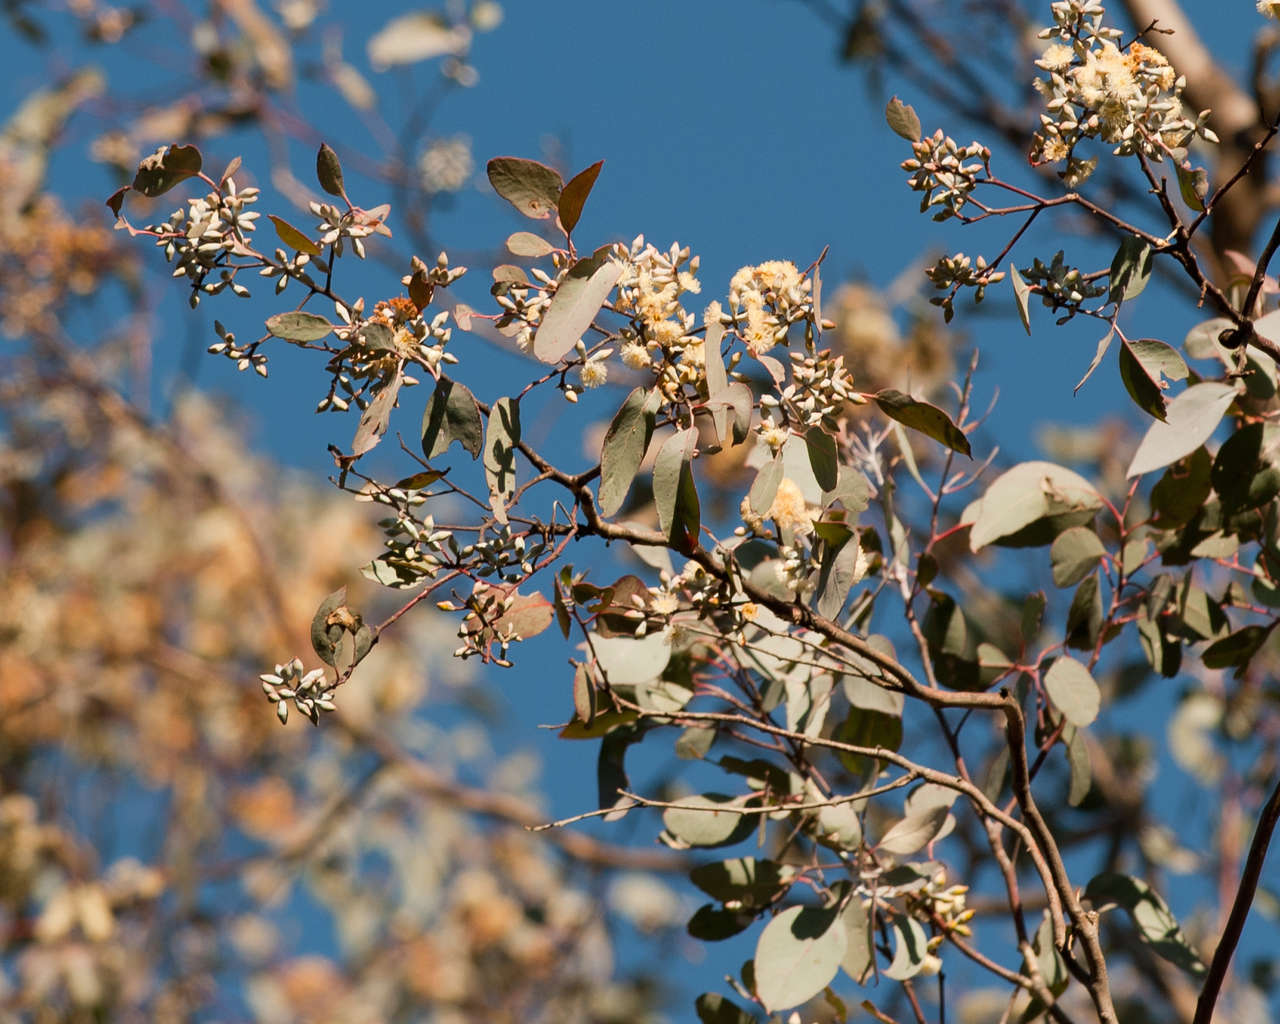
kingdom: Plantae
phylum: Tracheophyta
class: Magnoliopsida
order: Myrtales
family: Myrtaceae
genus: Eucalyptus
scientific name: Eucalyptus albens
